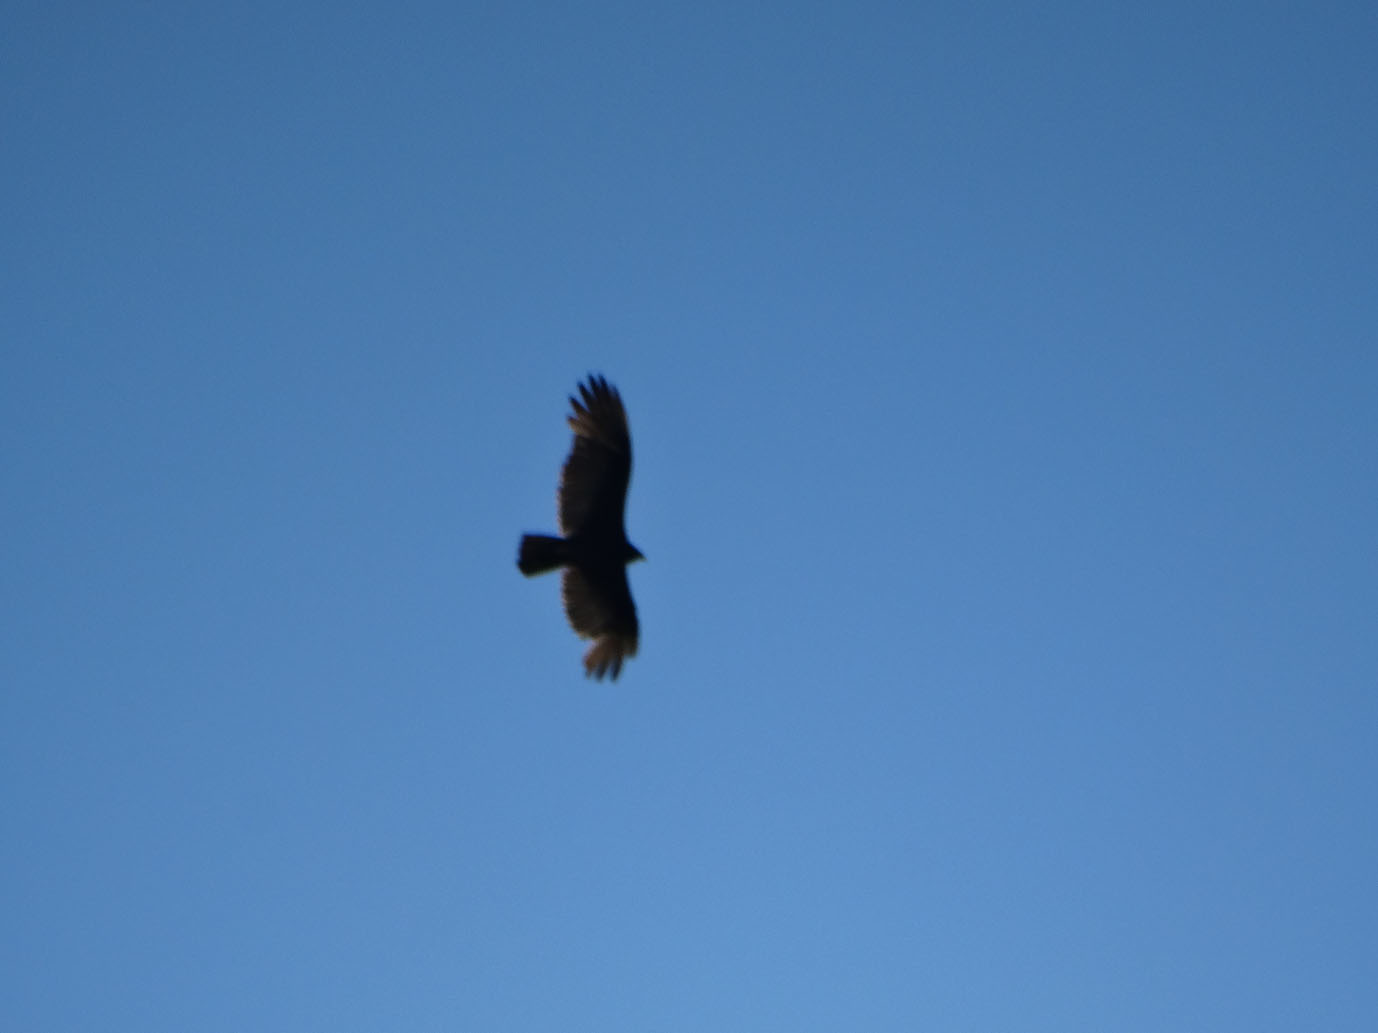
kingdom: Animalia
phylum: Chordata
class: Aves
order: Accipitriformes
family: Cathartidae
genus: Cathartes
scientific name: Cathartes aura
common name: Turkey vulture
